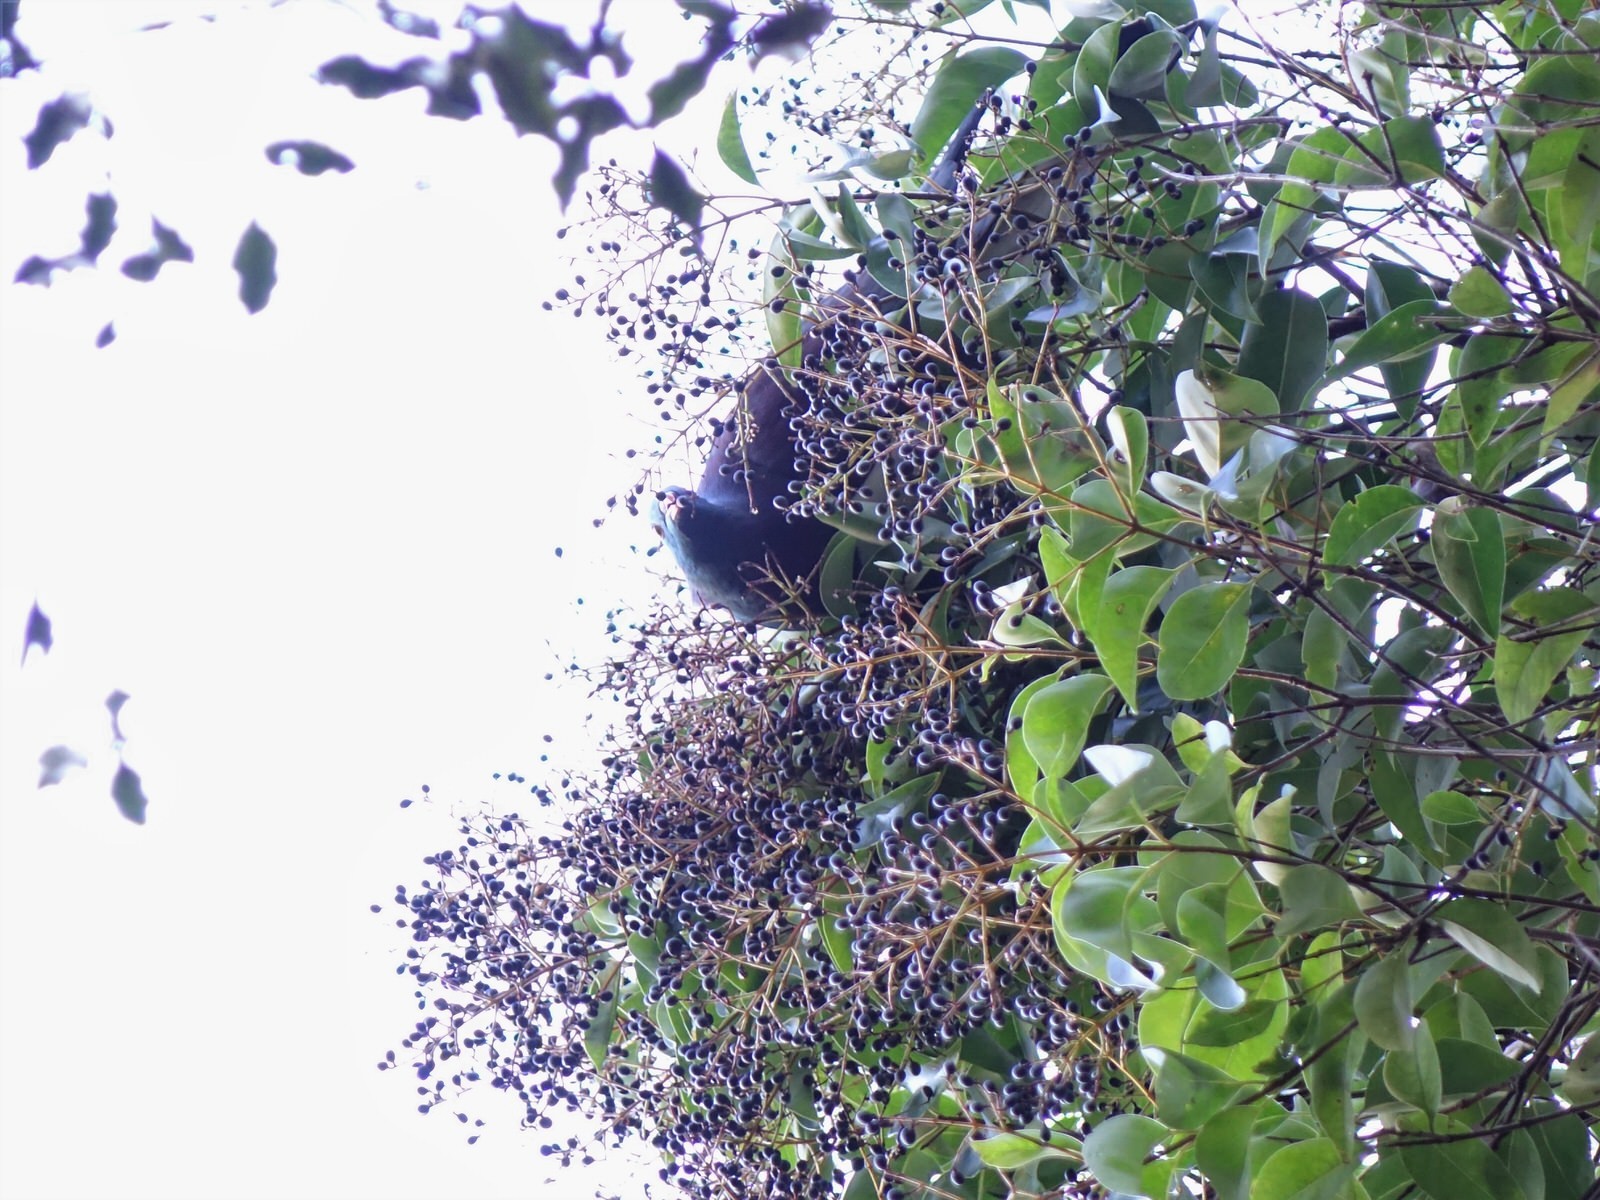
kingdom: Animalia
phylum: Chordata
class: Aves
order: Columbiformes
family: Columbidae
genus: Hemiphaga
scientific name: Hemiphaga novaeseelandiae
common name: New zealand pigeon
